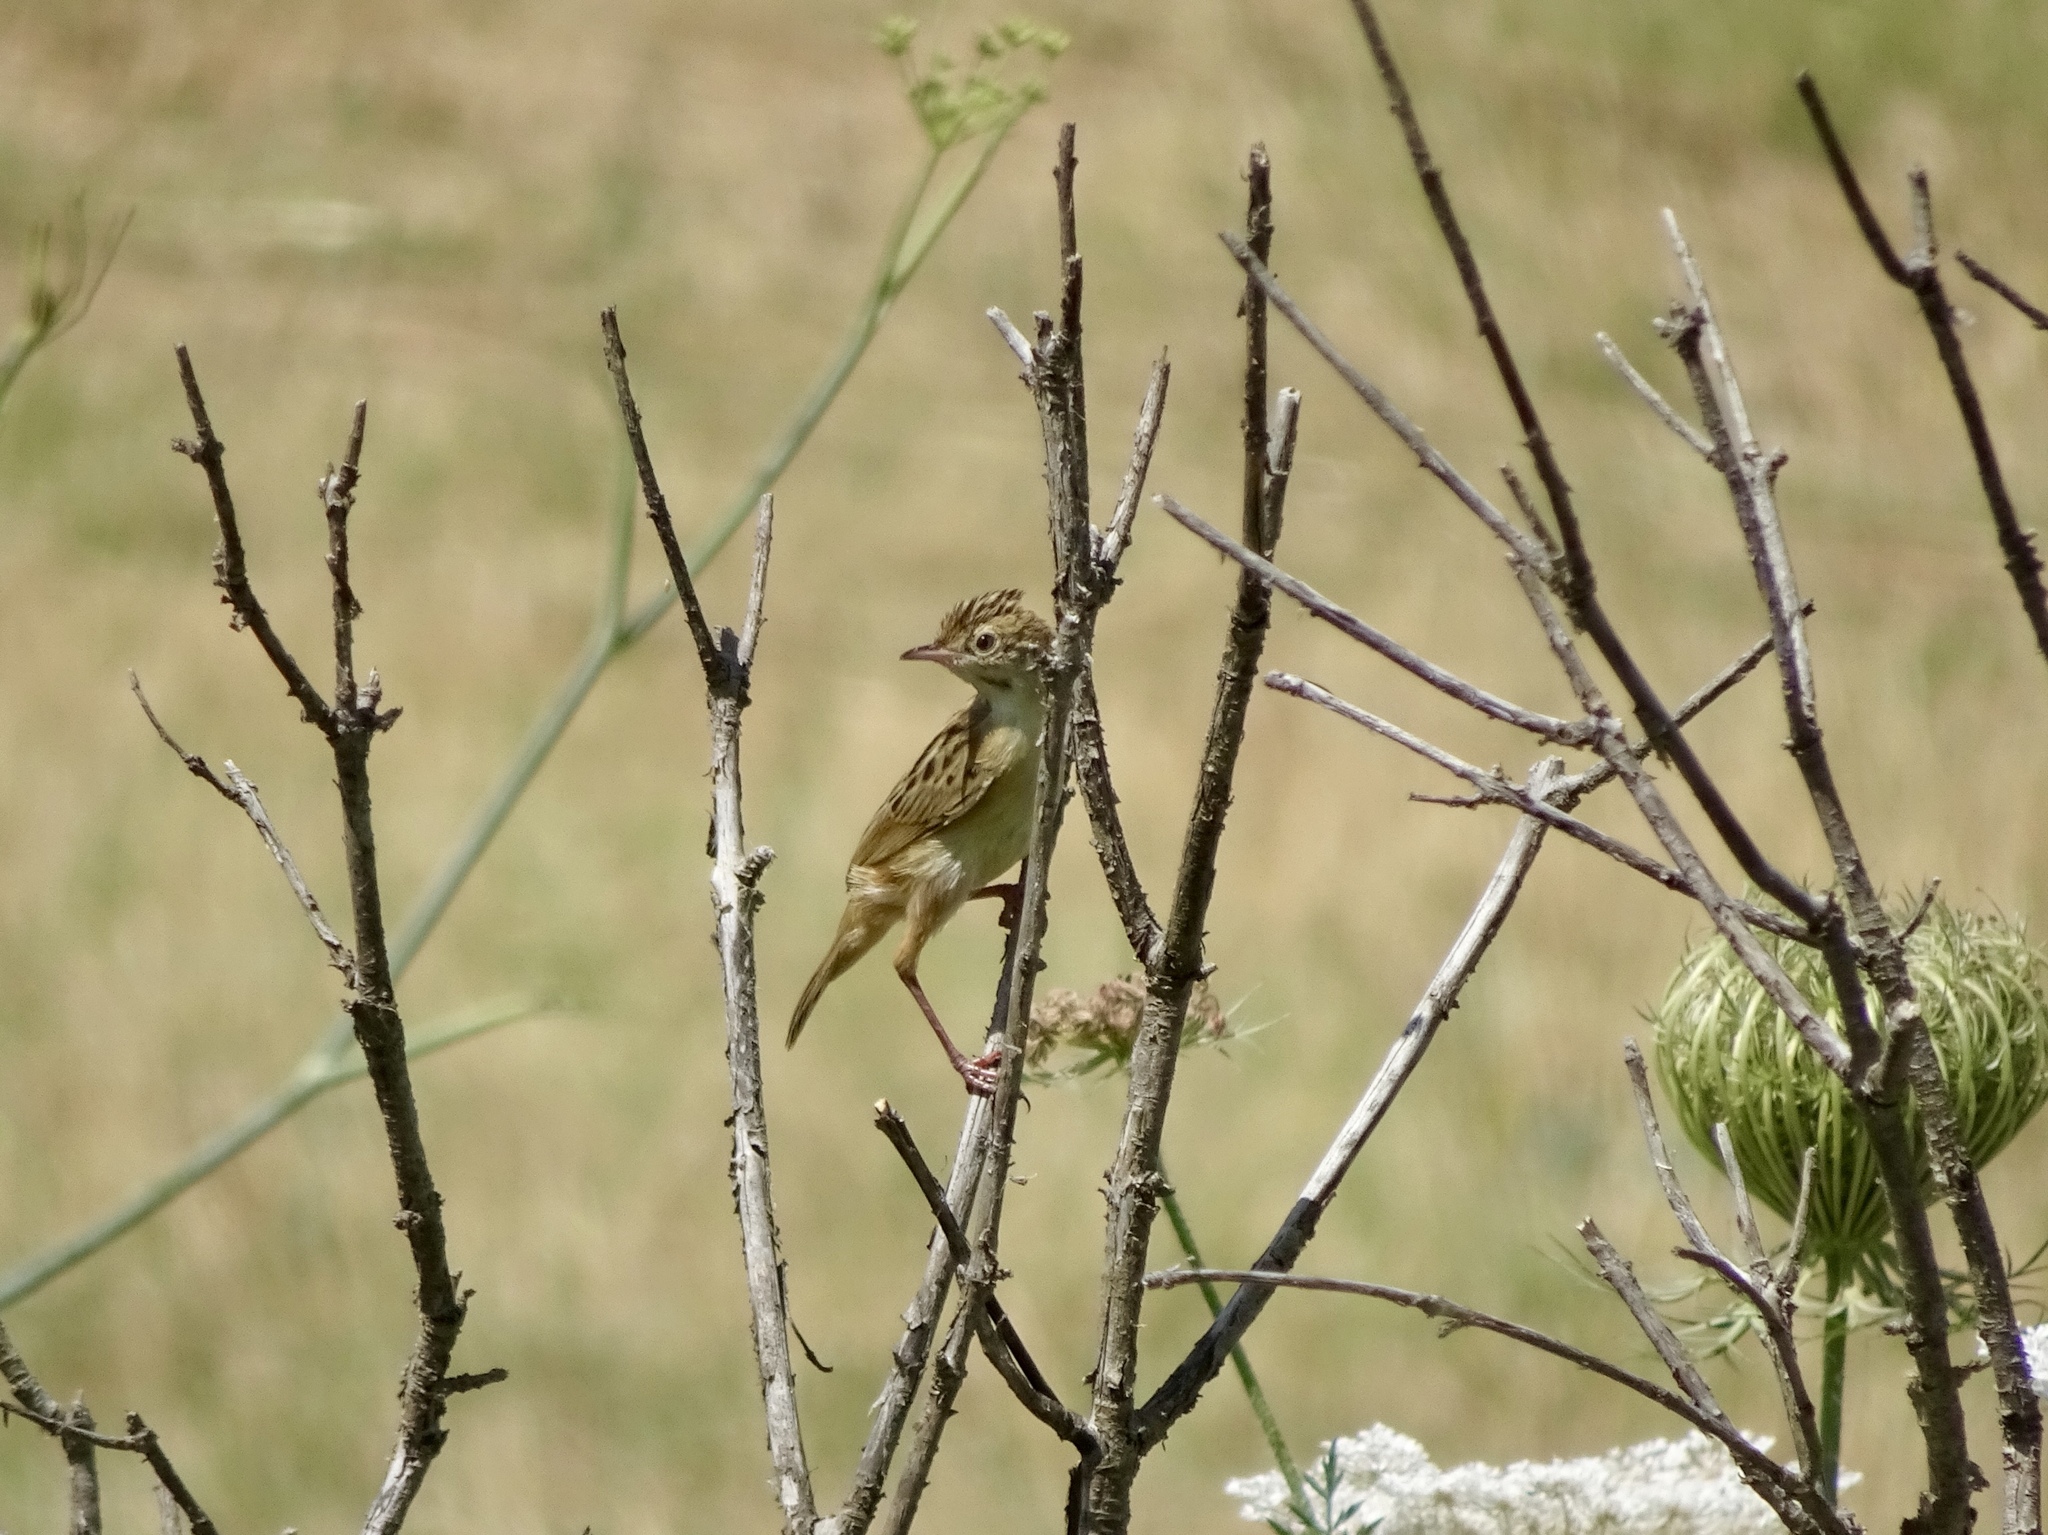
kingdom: Animalia
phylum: Chordata
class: Aves
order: Passeriformes
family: Cisticolidae
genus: Cisticola
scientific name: Cisticola juncidis
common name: Zitting cisticola
